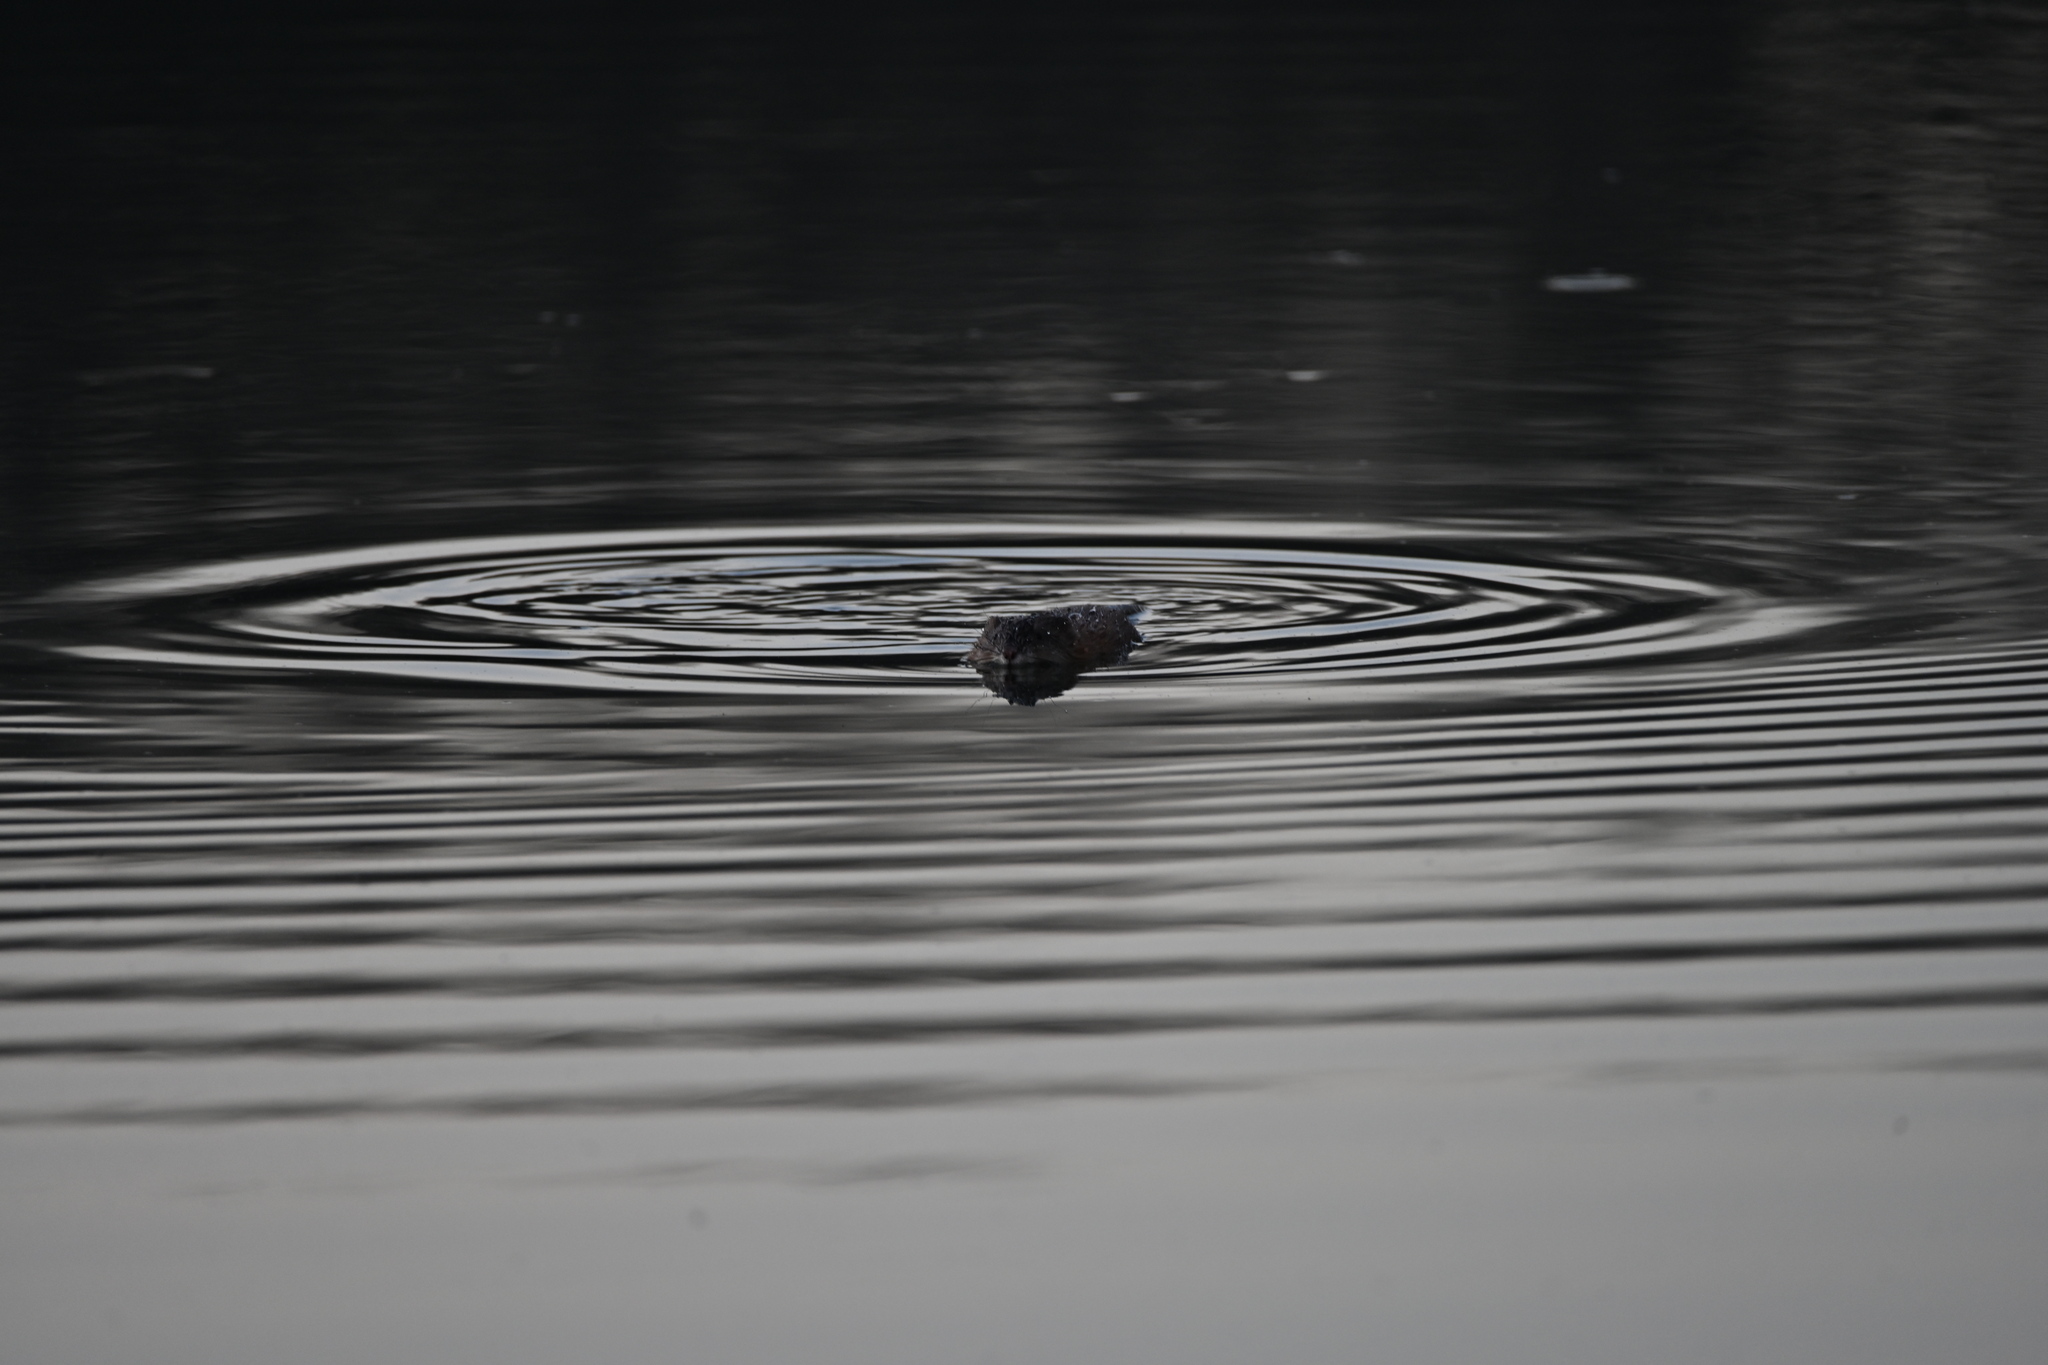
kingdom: Animalia
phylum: Chordata
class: Mammalia
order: Rodentia
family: Cricetidae
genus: Ondatra
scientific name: Ondatra zibethicus
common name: Muskrat
